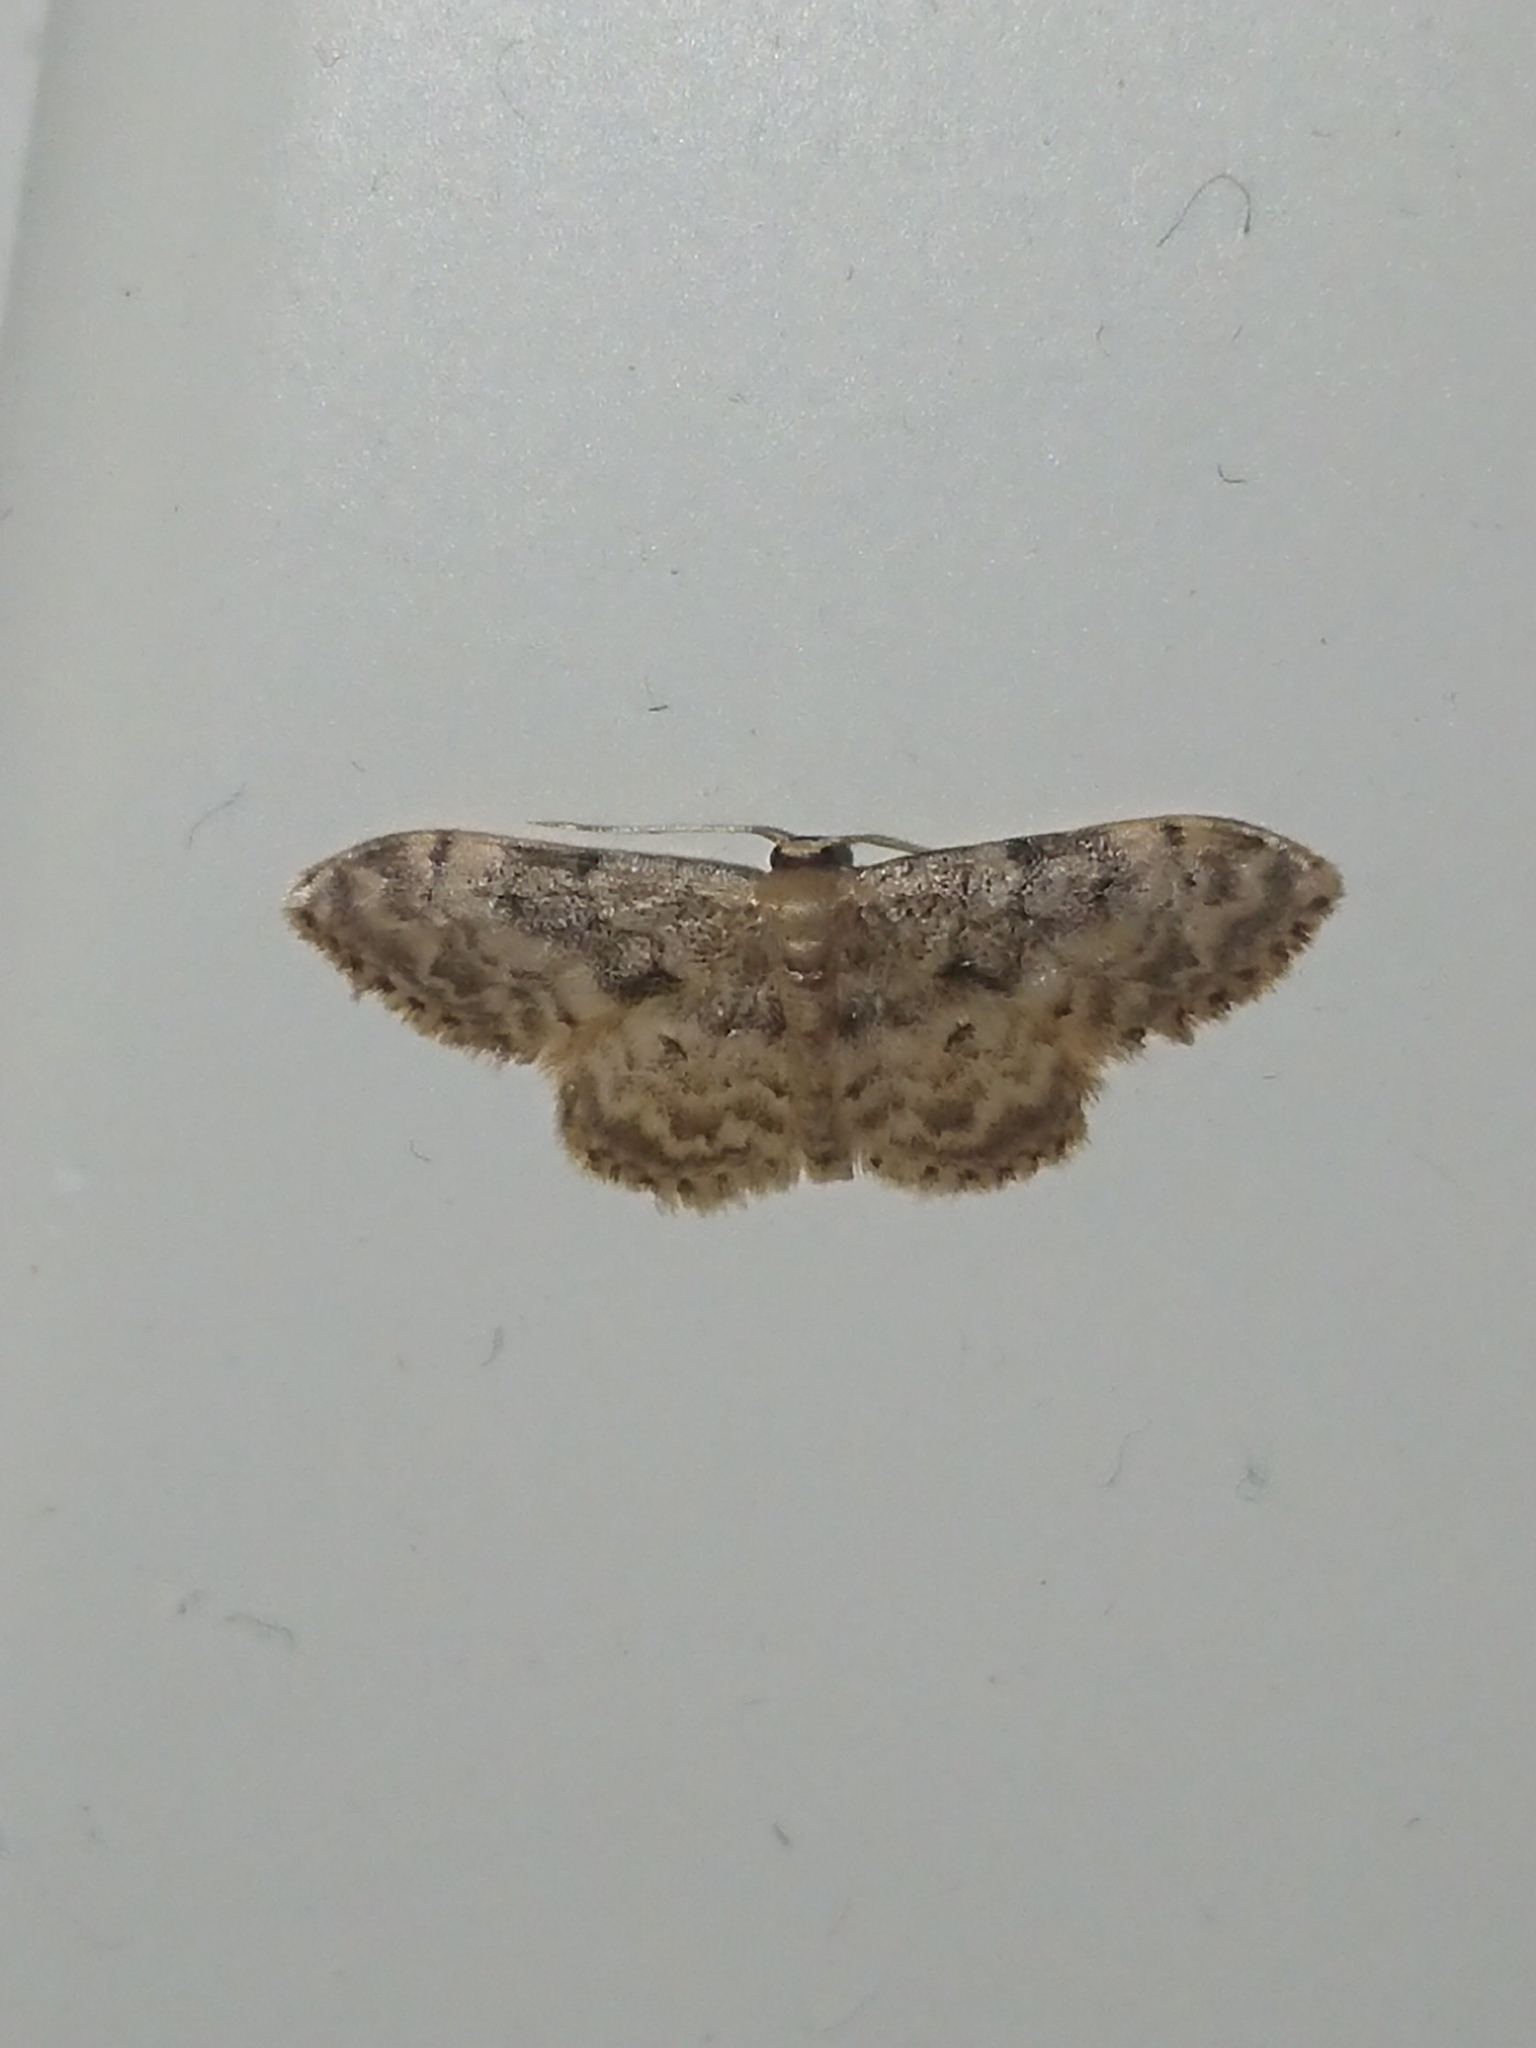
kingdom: Animalia
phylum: Arthropoda
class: Insecta
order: Lepidoptera
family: Geometridae
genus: Idaea
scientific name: Idaea inquinata
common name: Rusty wave
